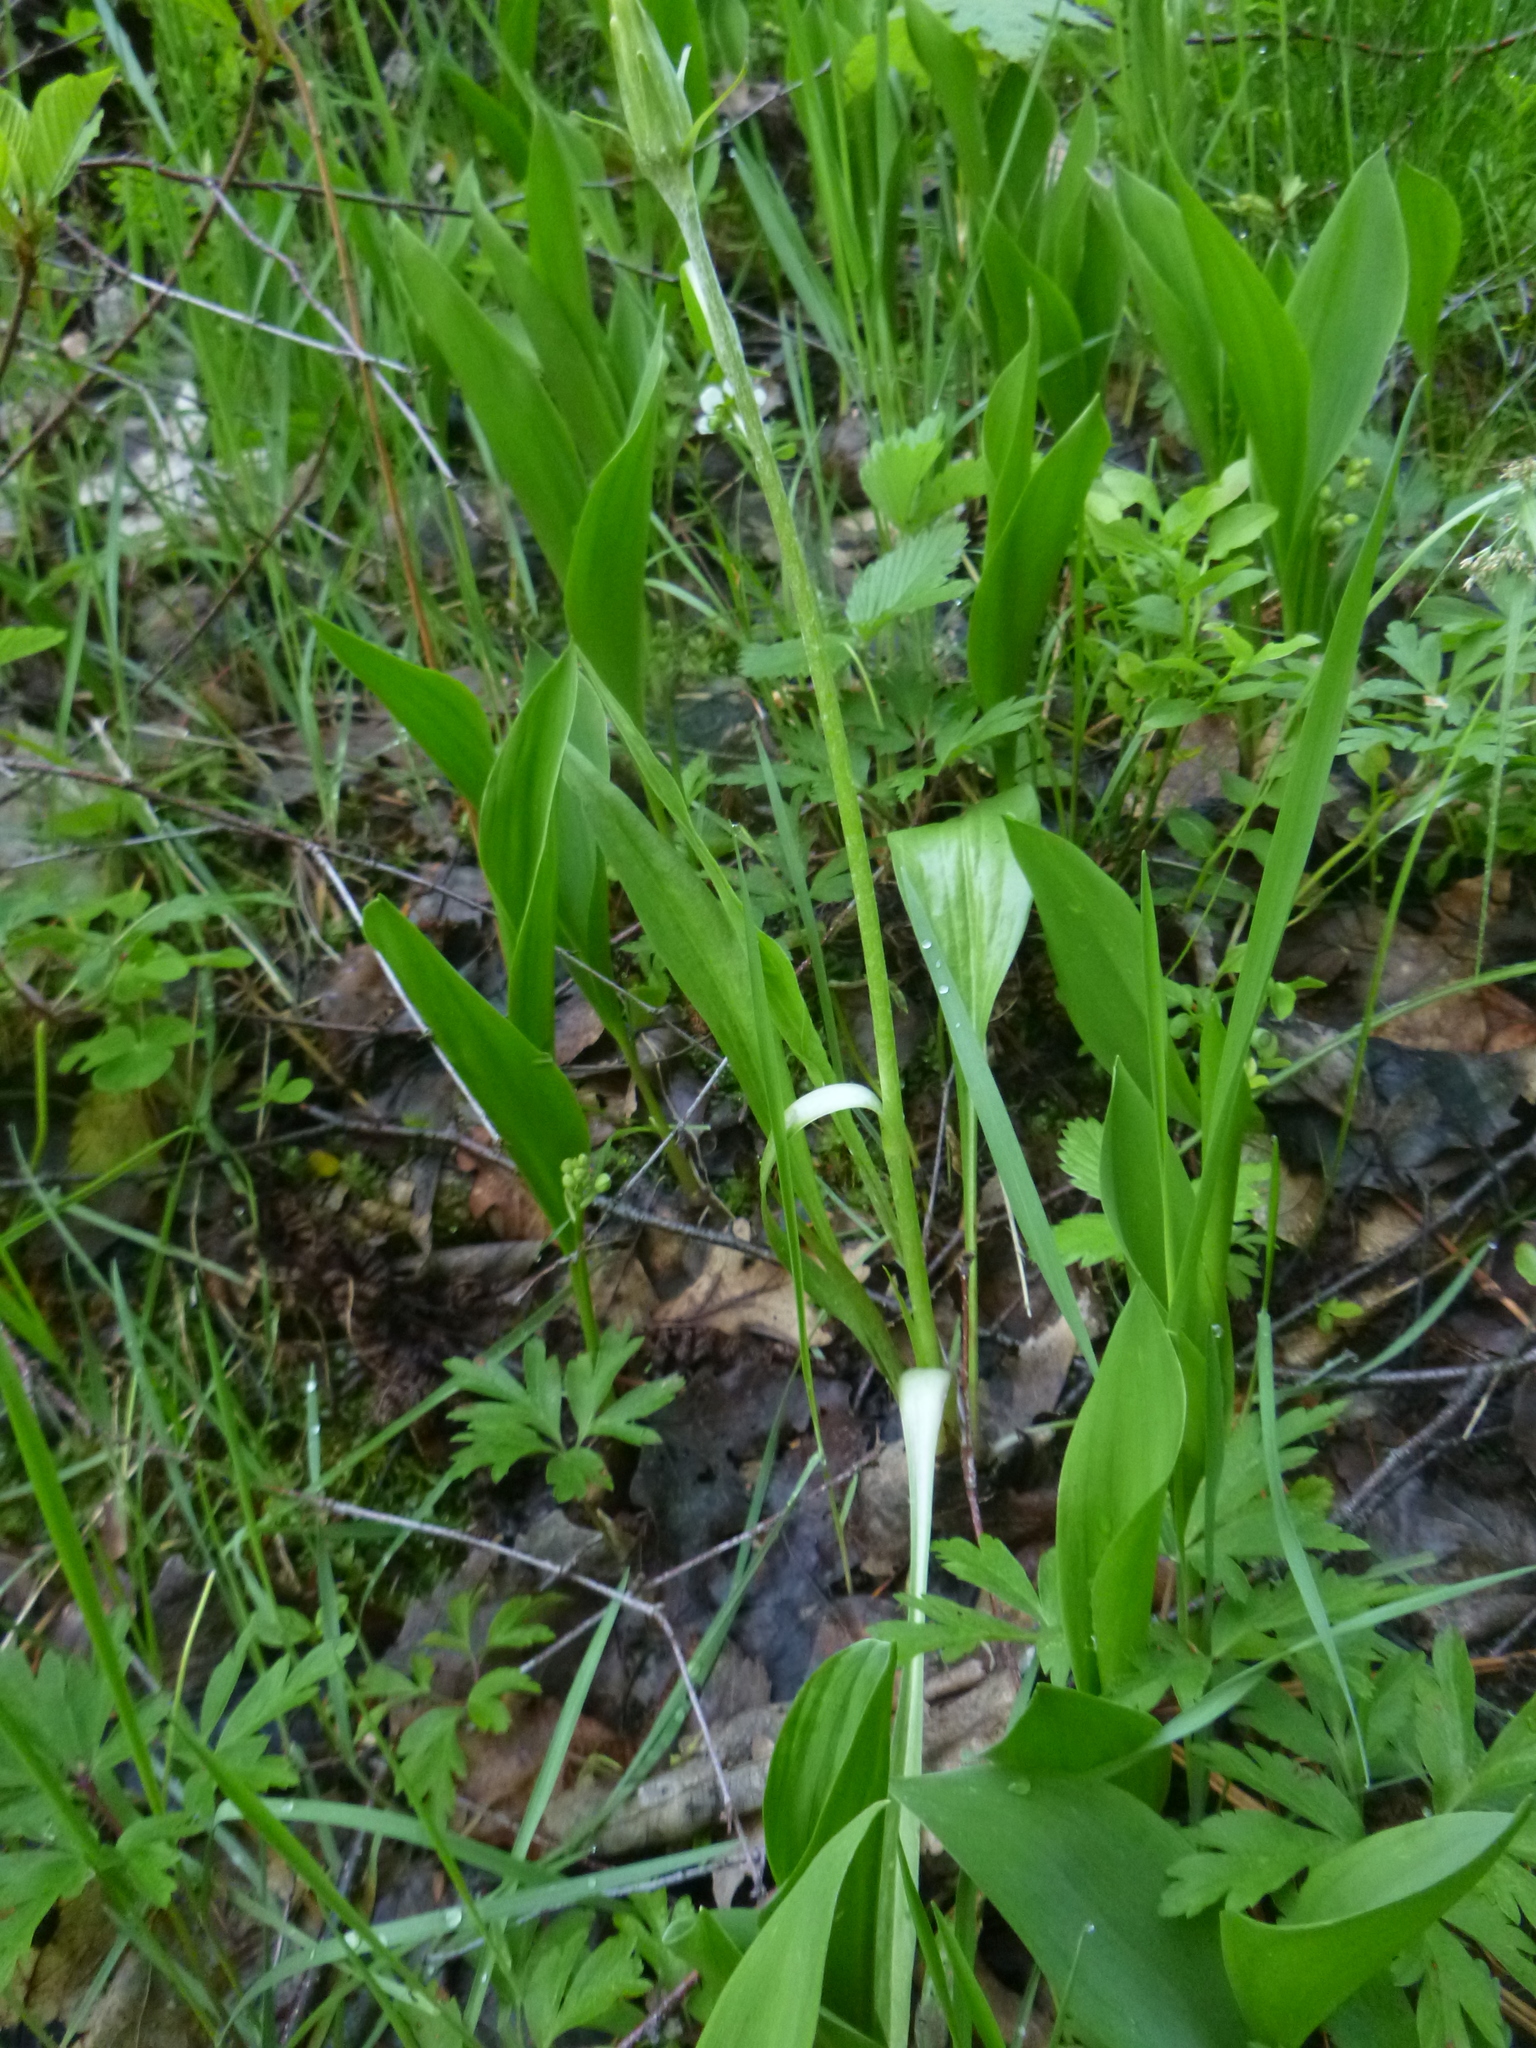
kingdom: Plantae
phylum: Tracheophyta
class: Magnoliopsida
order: Asterales
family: Asteraceae
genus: Scorzonera
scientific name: Scorzonera humilis
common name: Viper's-grass
